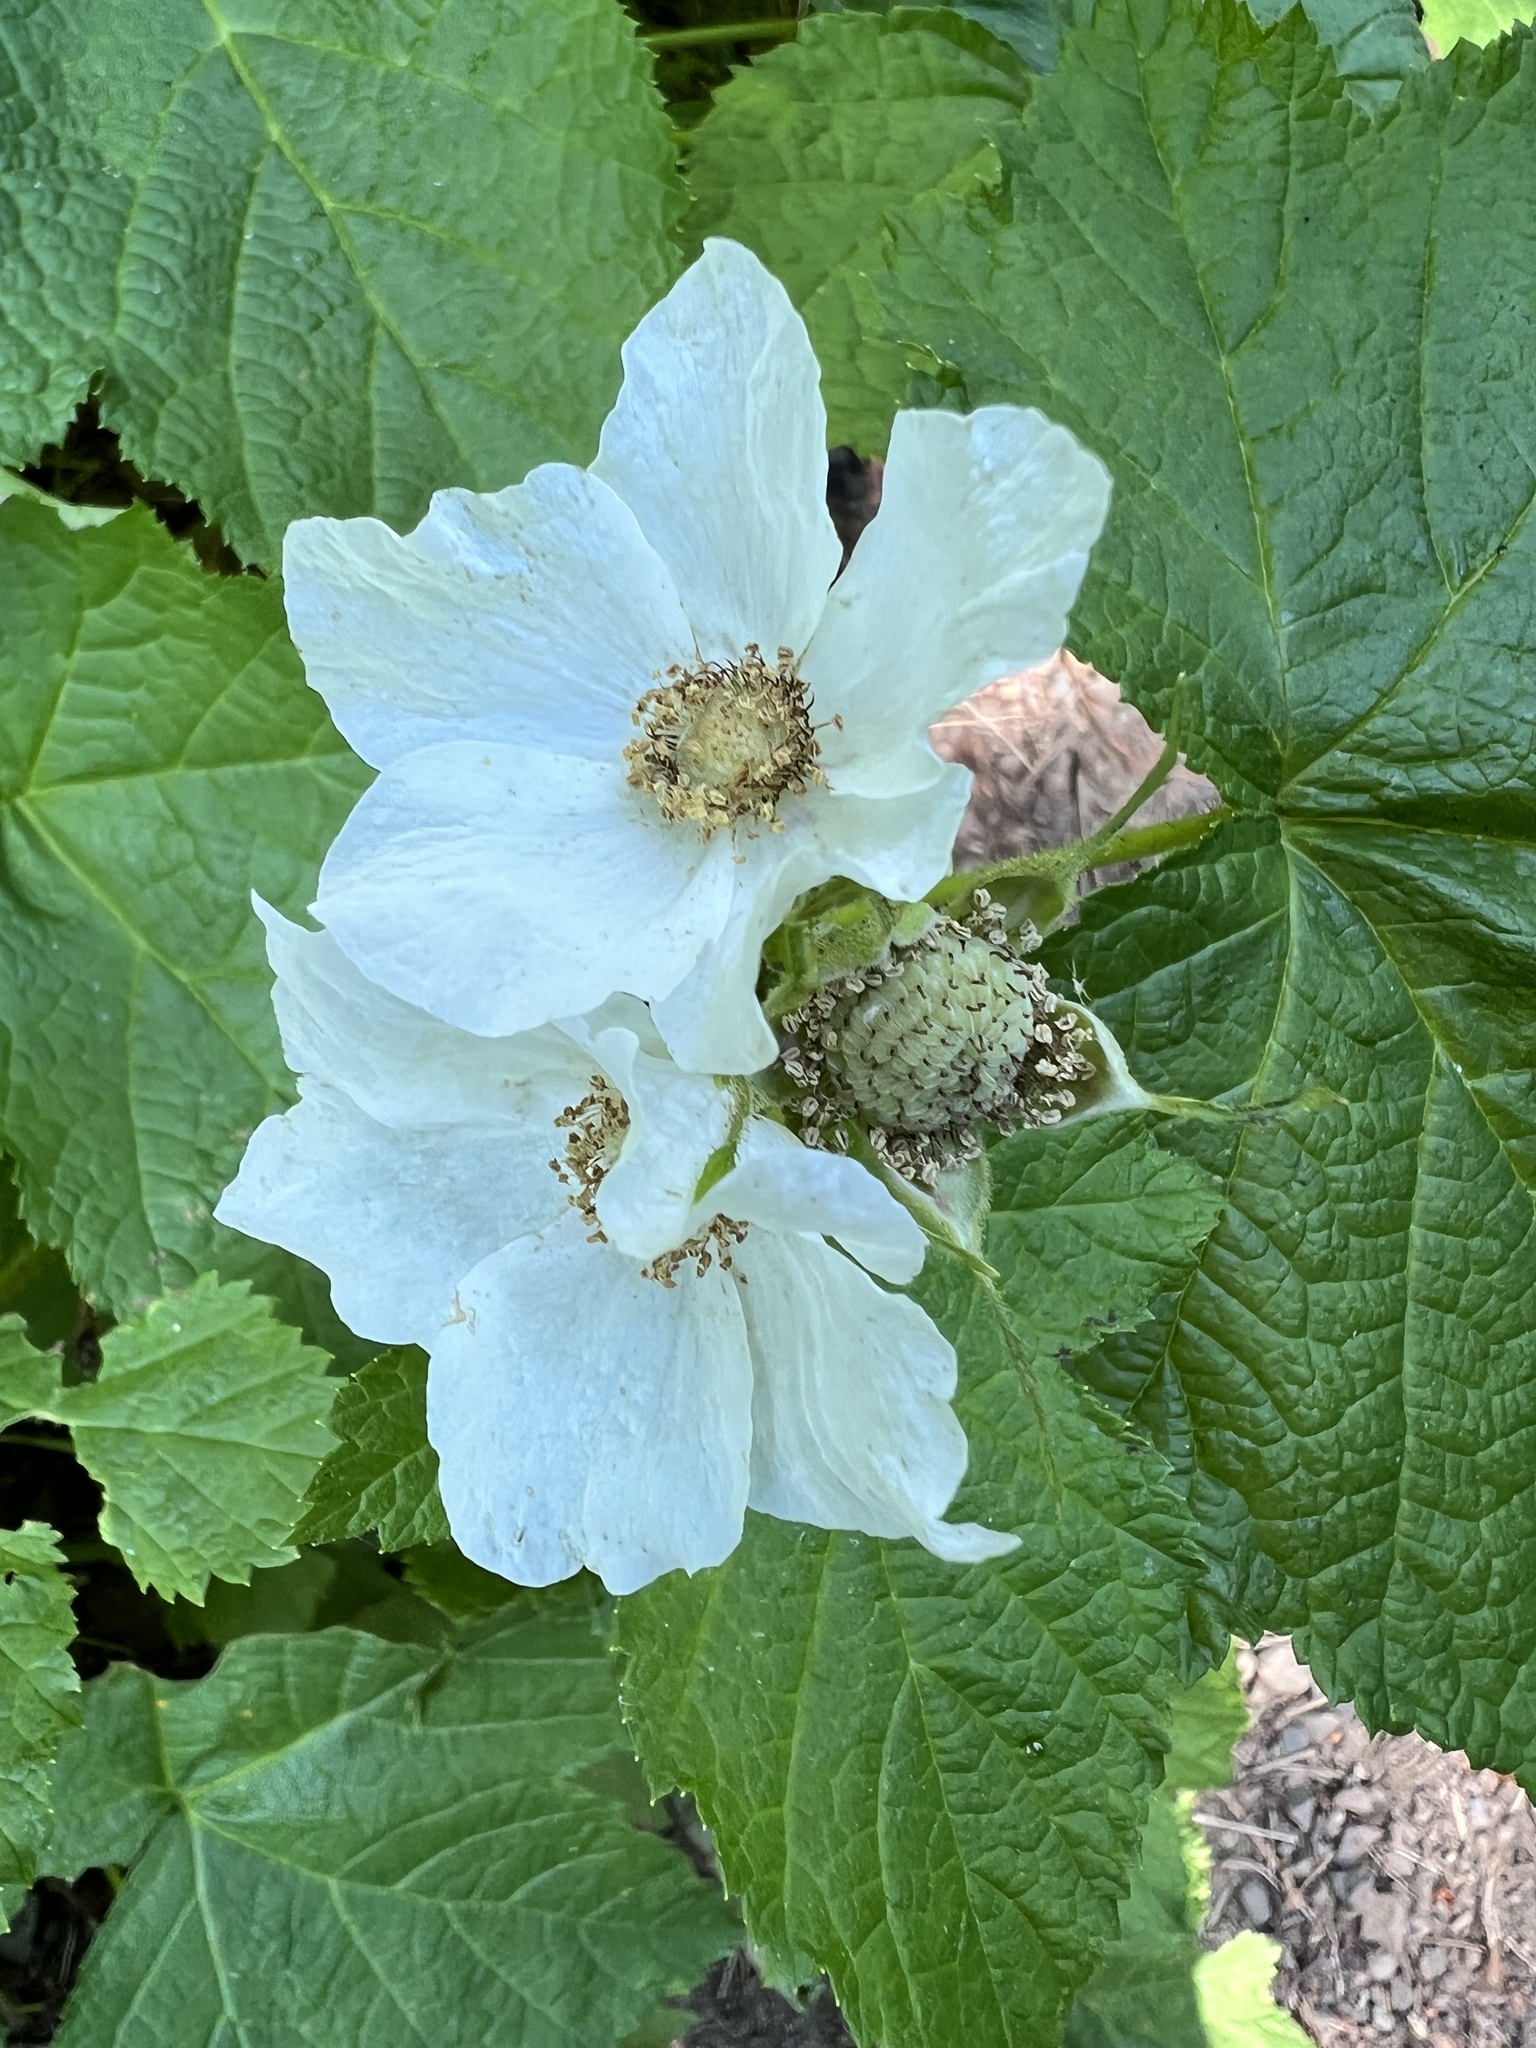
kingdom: Plantae
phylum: Tracheophyta
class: Magnoliopsida
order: Rosales
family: Rosaceae
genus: Rubus
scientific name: Rubus parviflorus
